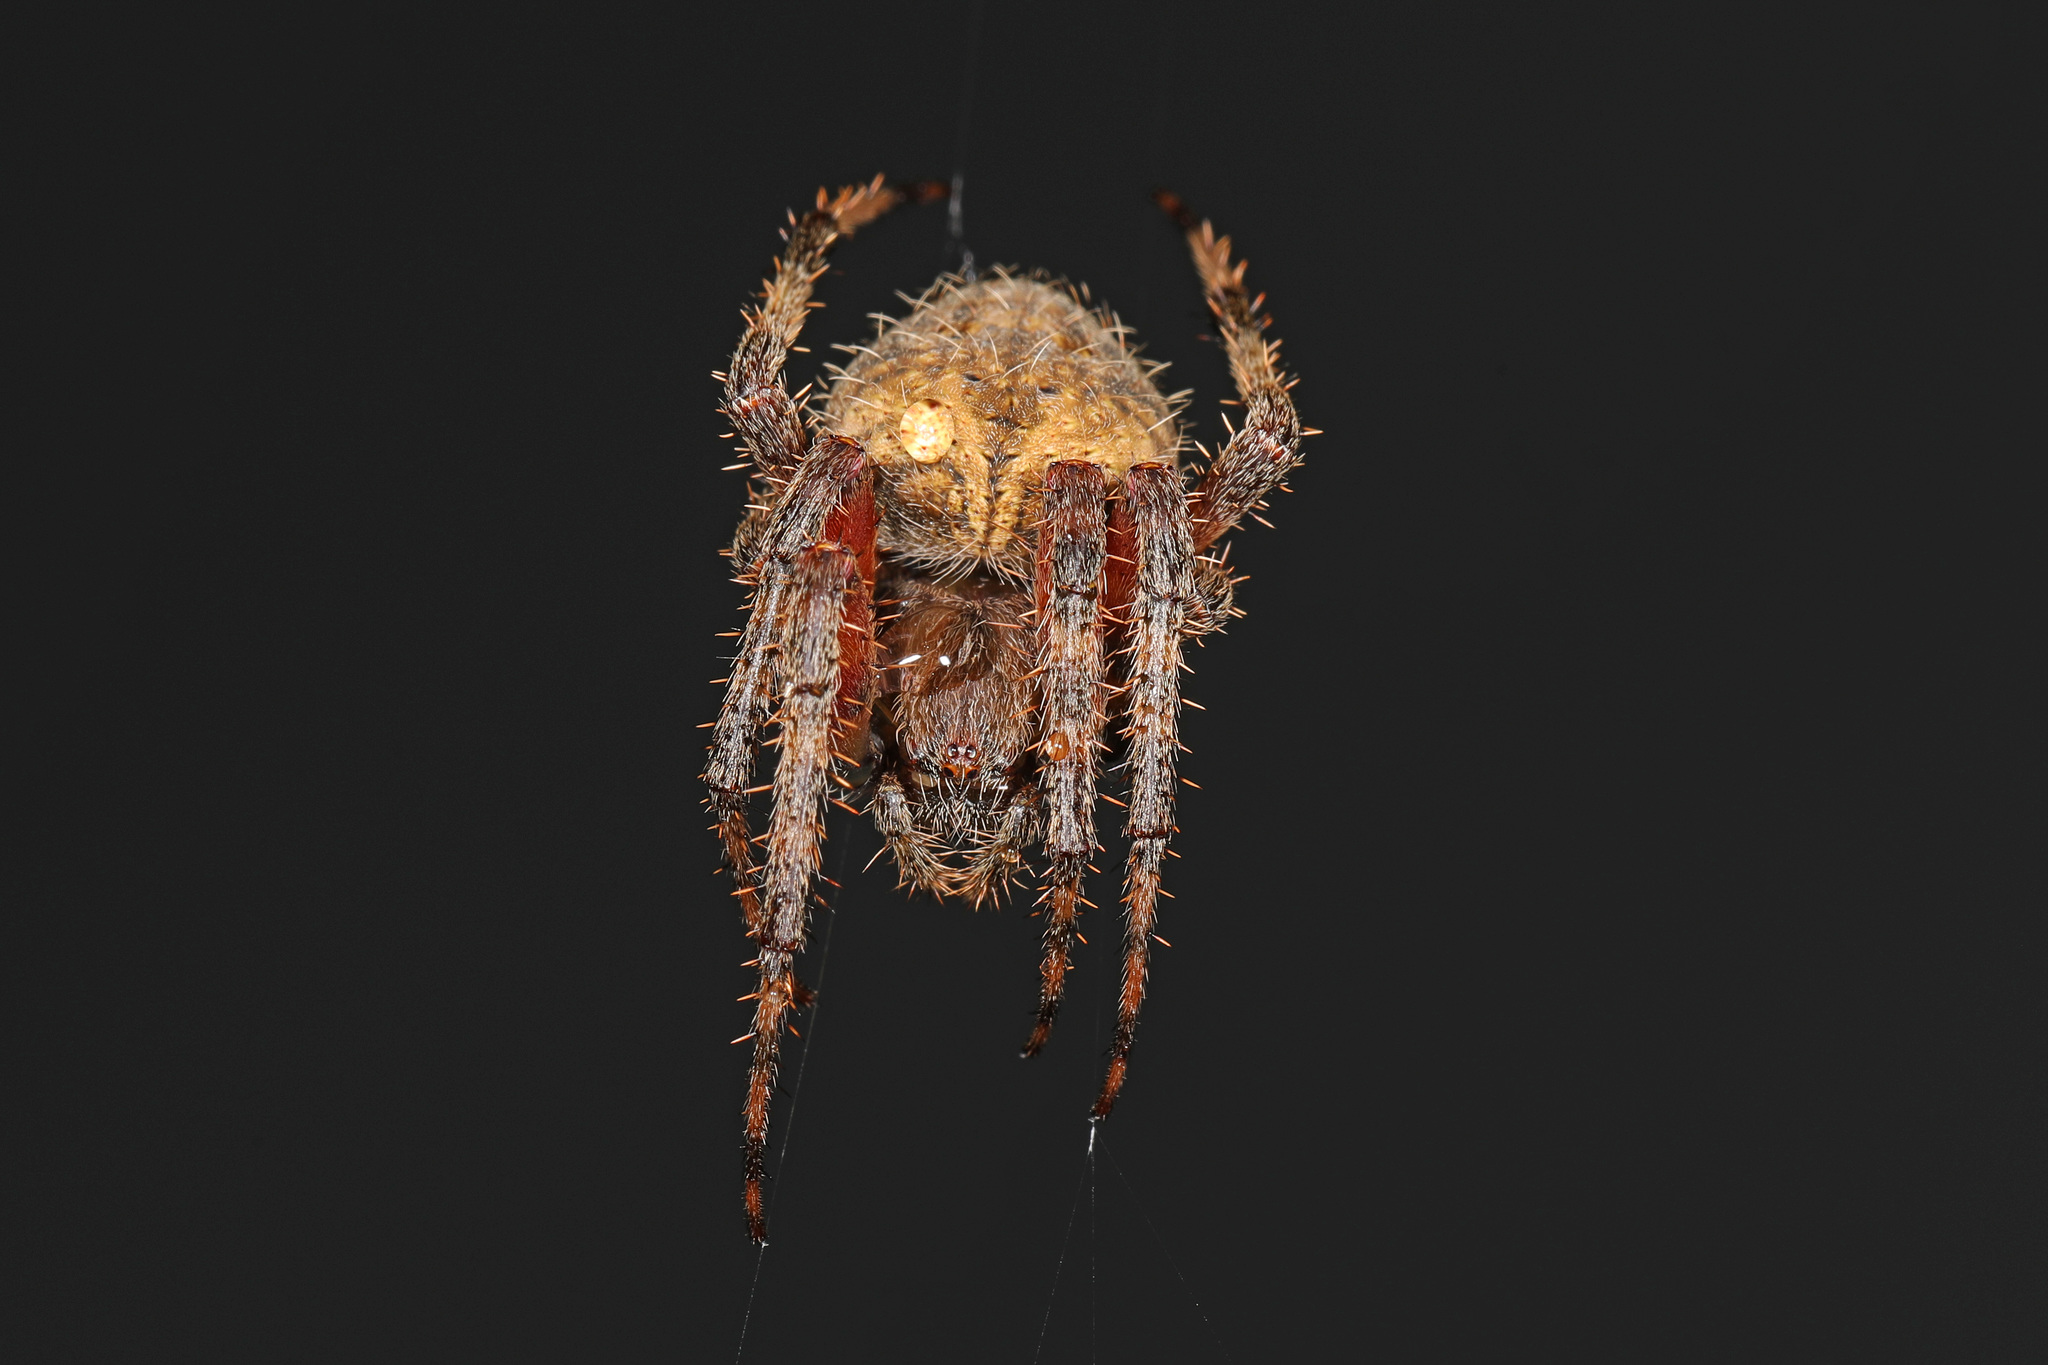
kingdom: Animalia
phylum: Arthropoda
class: Arachnida
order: Araneae
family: Araneidae
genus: Neoscona
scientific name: Neoscona crucifera
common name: Spotted orbweaver
